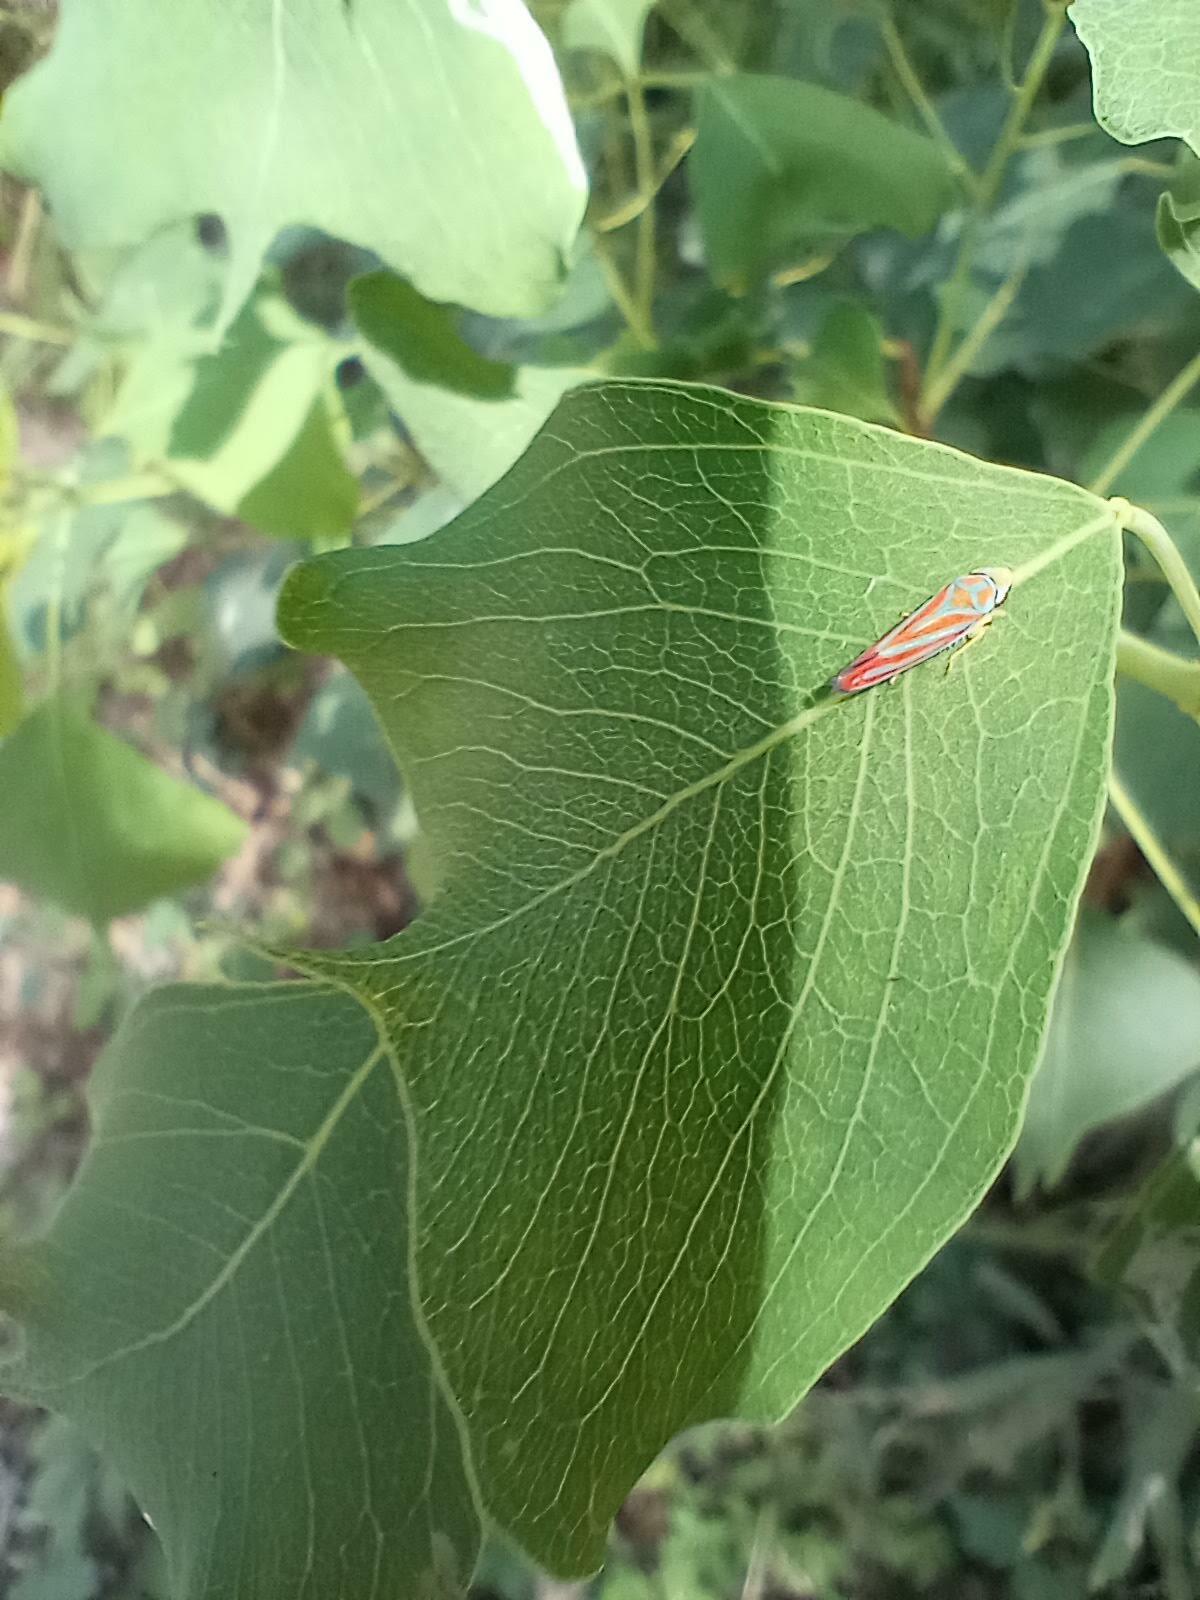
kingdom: Plantae
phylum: Tracheophyta
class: Magnoliopsida
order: Malpighiales
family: Euphorbiaceae
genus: Triadica
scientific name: Triadica sebifera
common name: Chinese tallow
